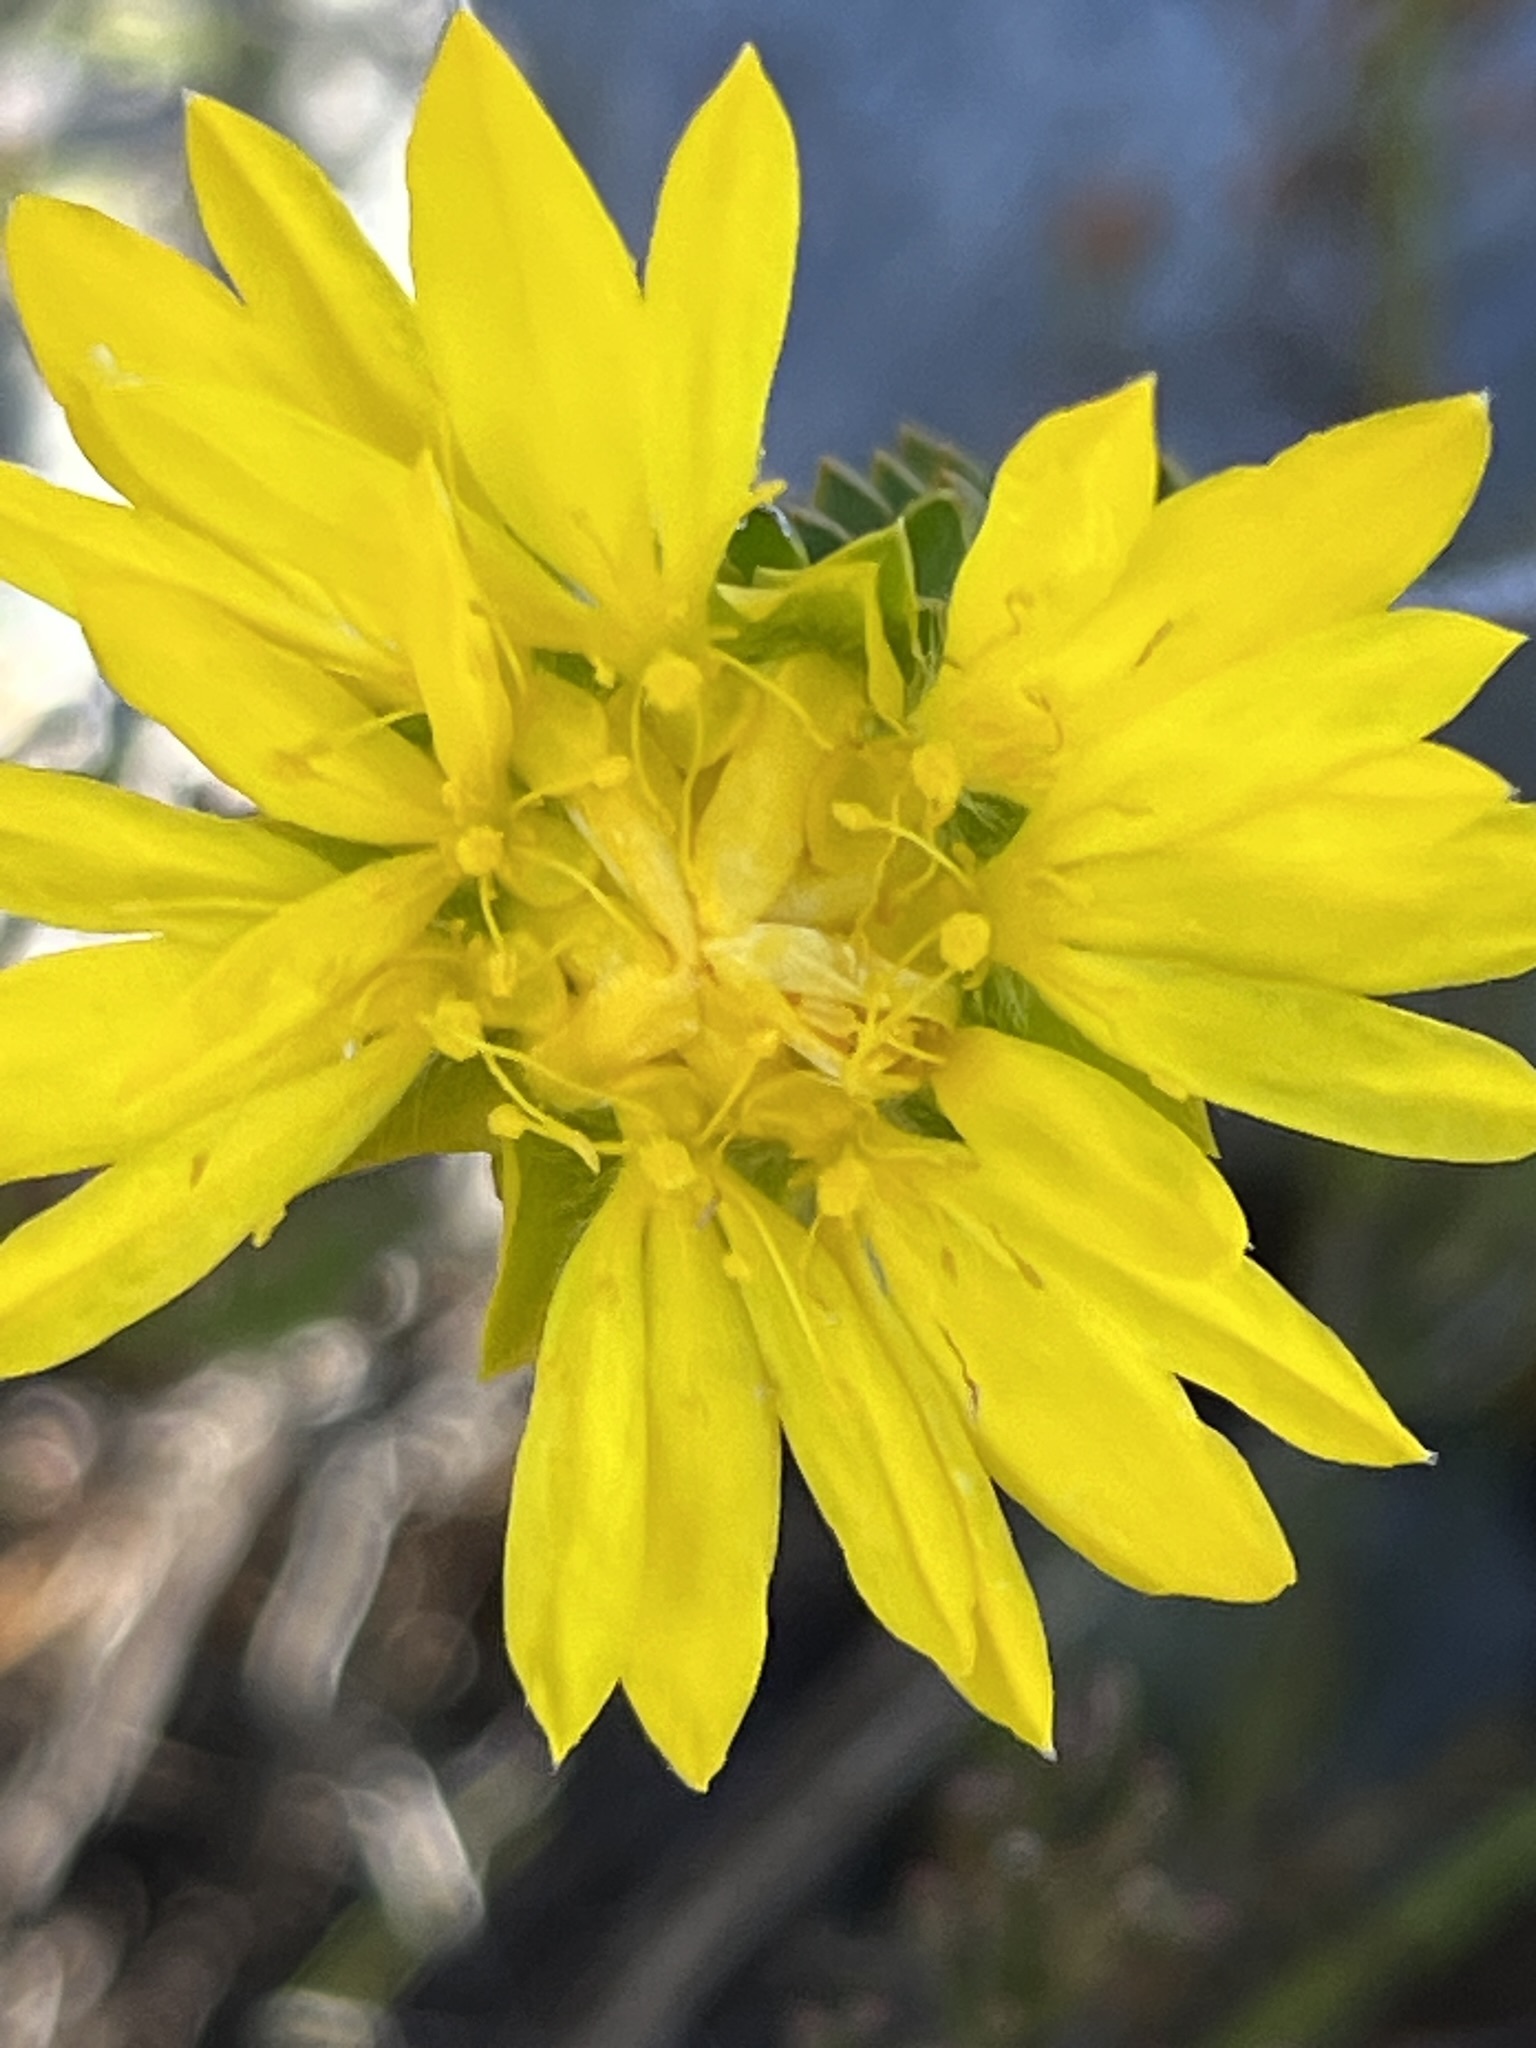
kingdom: Plantae
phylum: Tracheophyta
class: Magnoliopsida
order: Malvales
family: Thymelaeaceae
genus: Lachnaea
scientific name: Lachnaea aurea
